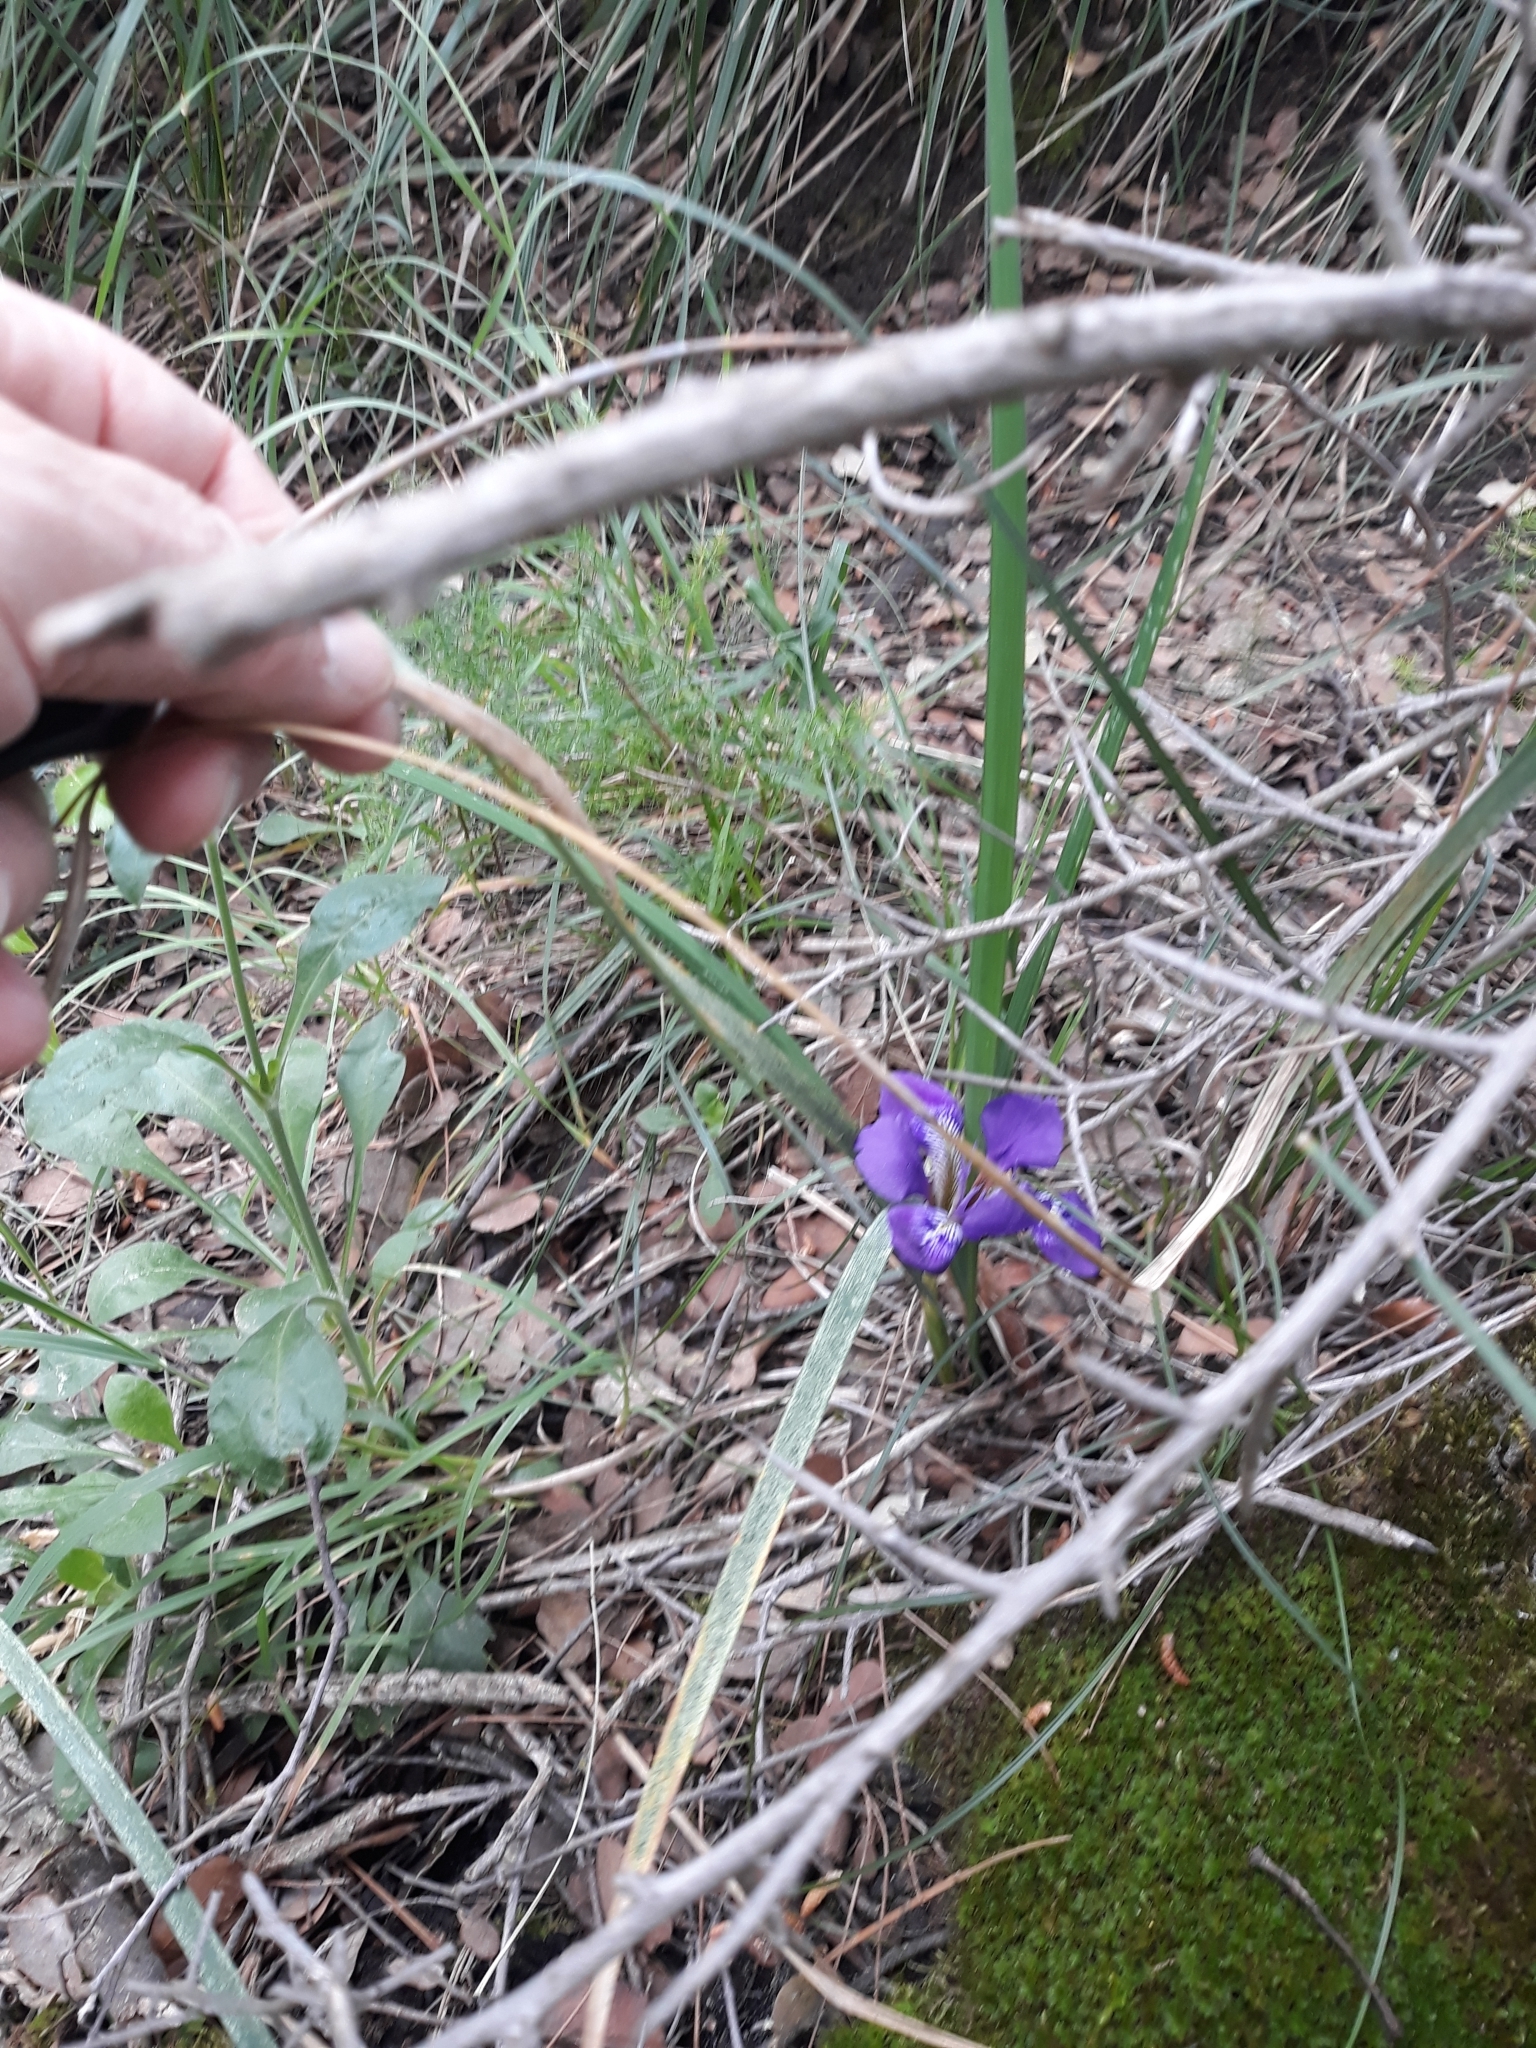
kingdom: Plantae
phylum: Tracheophyta
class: Liliopsida
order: Asparagales
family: Iridaceae
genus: Iris
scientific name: Iris unguicularis
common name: Algerian iris
